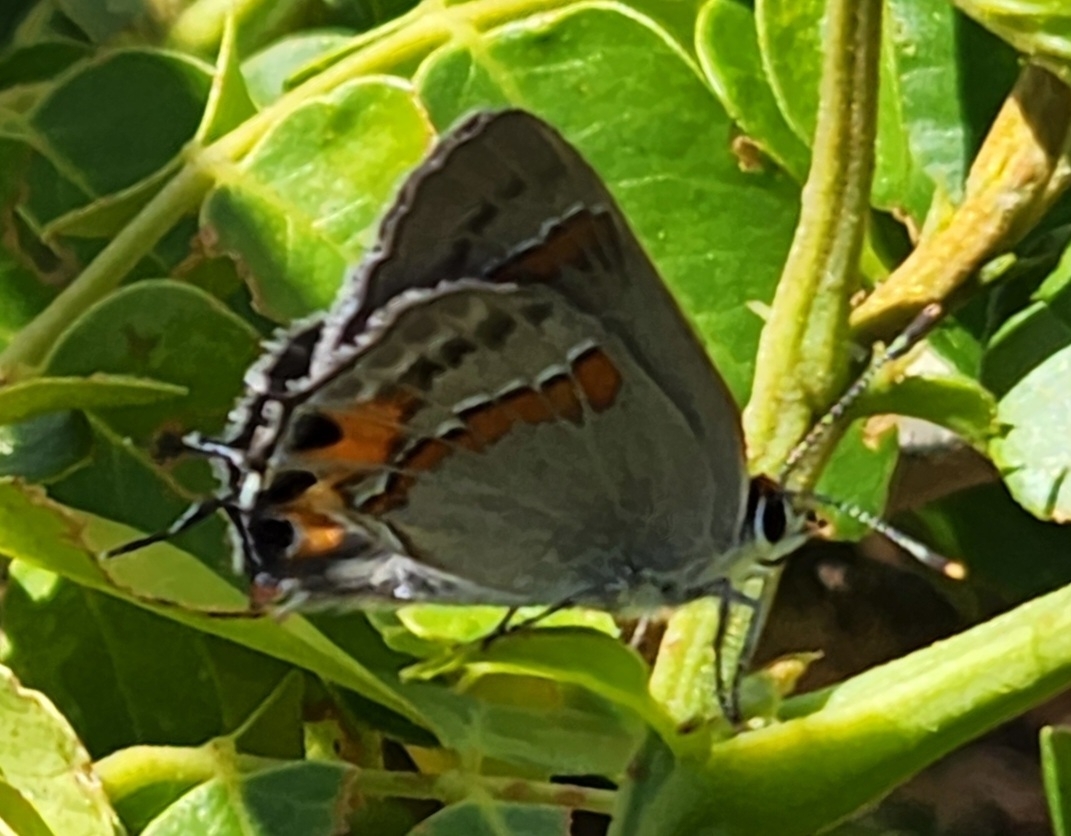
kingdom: Animalia
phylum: Arthropoda
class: Insecta
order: Lepidoptera
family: Lycaenidae
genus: Strymon
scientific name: Strymon melinus
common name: Gray hairstreak
